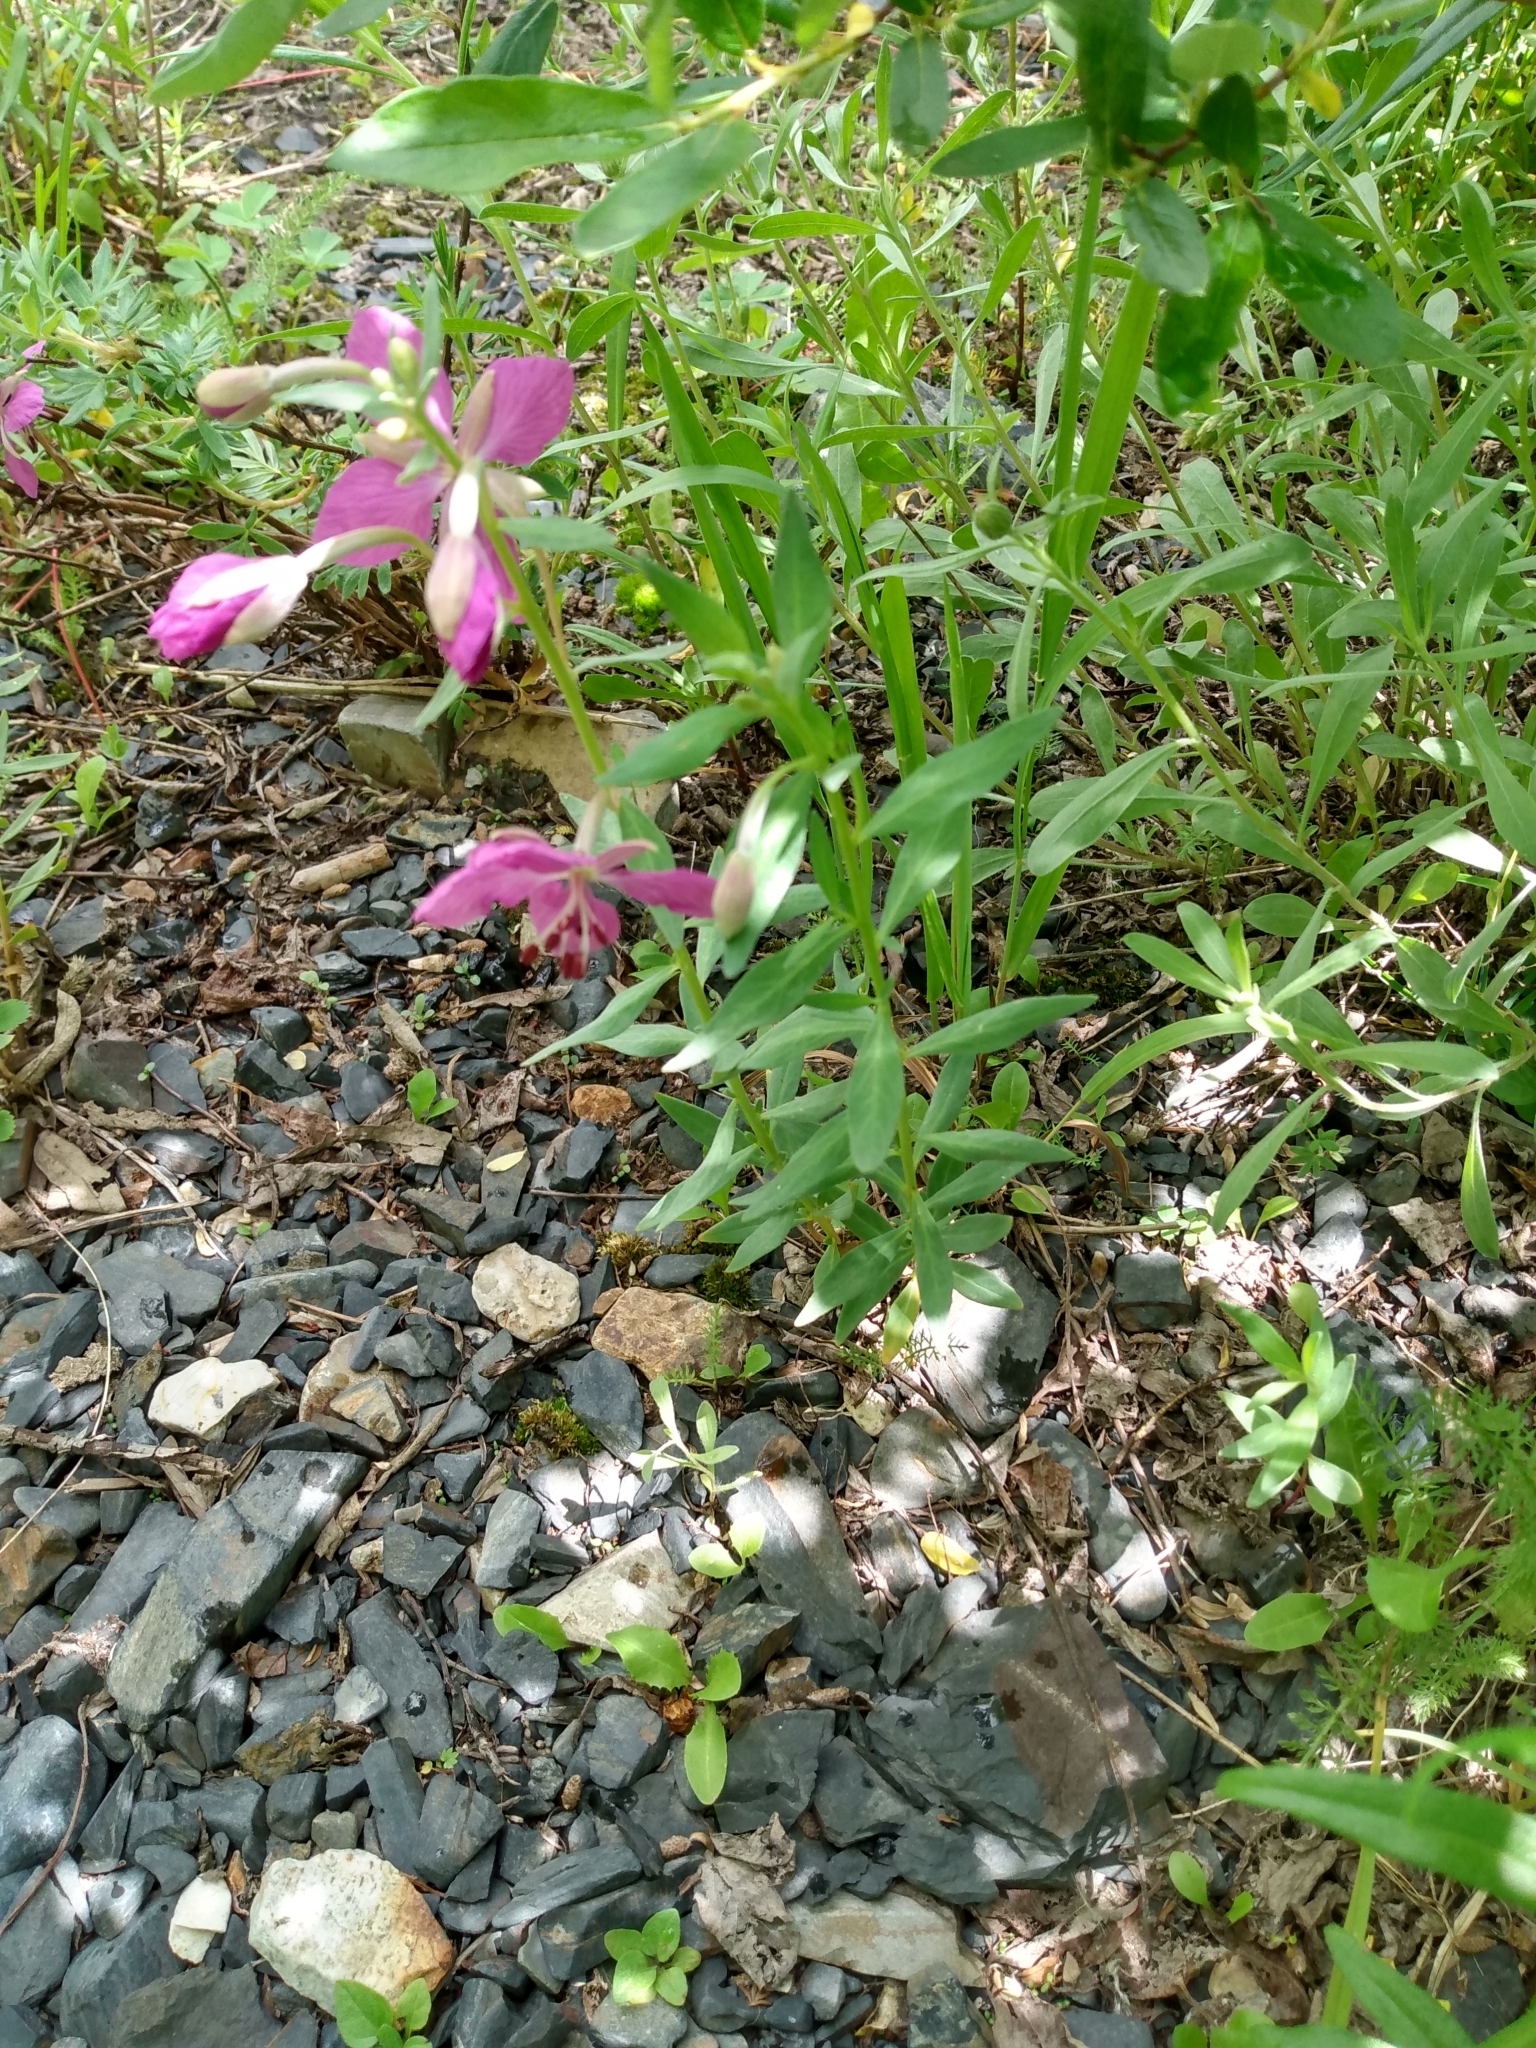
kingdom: Plantae
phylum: Tracheophyta
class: Magnoliopsida
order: Myrtales
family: Onagraceae
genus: Chamaenerion
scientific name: Chamaenerion latifolium
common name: Dwarf fireweed
